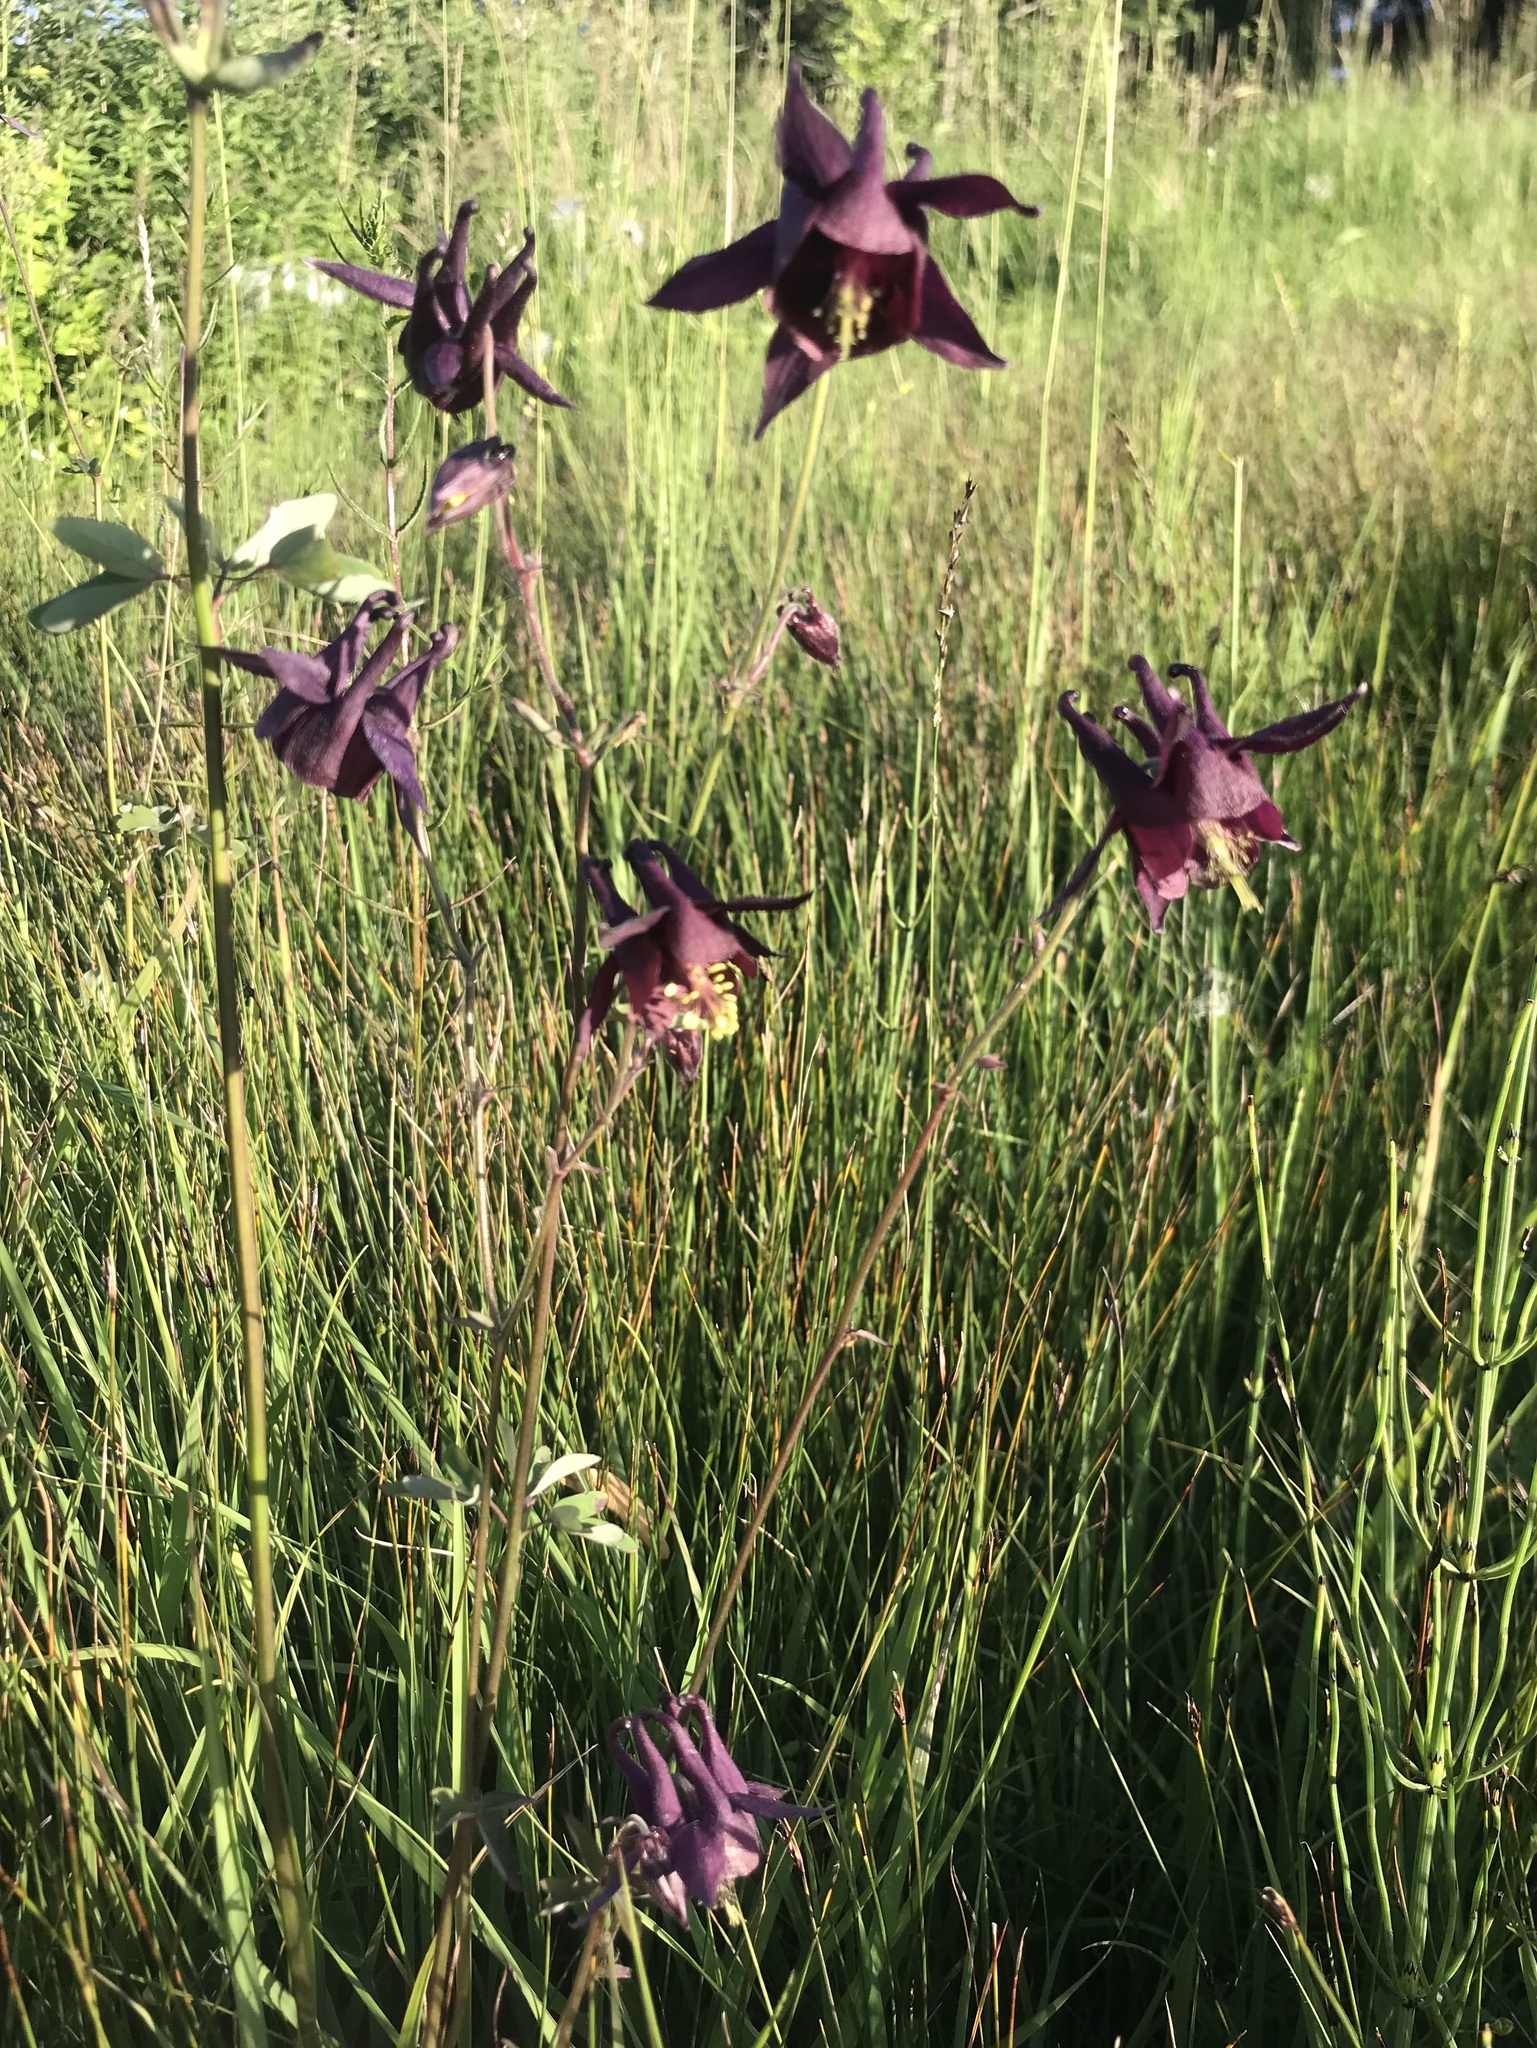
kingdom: Plantae
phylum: Tracheophyta
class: Magnoliopsida
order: Ranunculales
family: Ranunculaceae
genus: Aquilegia
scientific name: Aquilegia atrata
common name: Dark columbine
